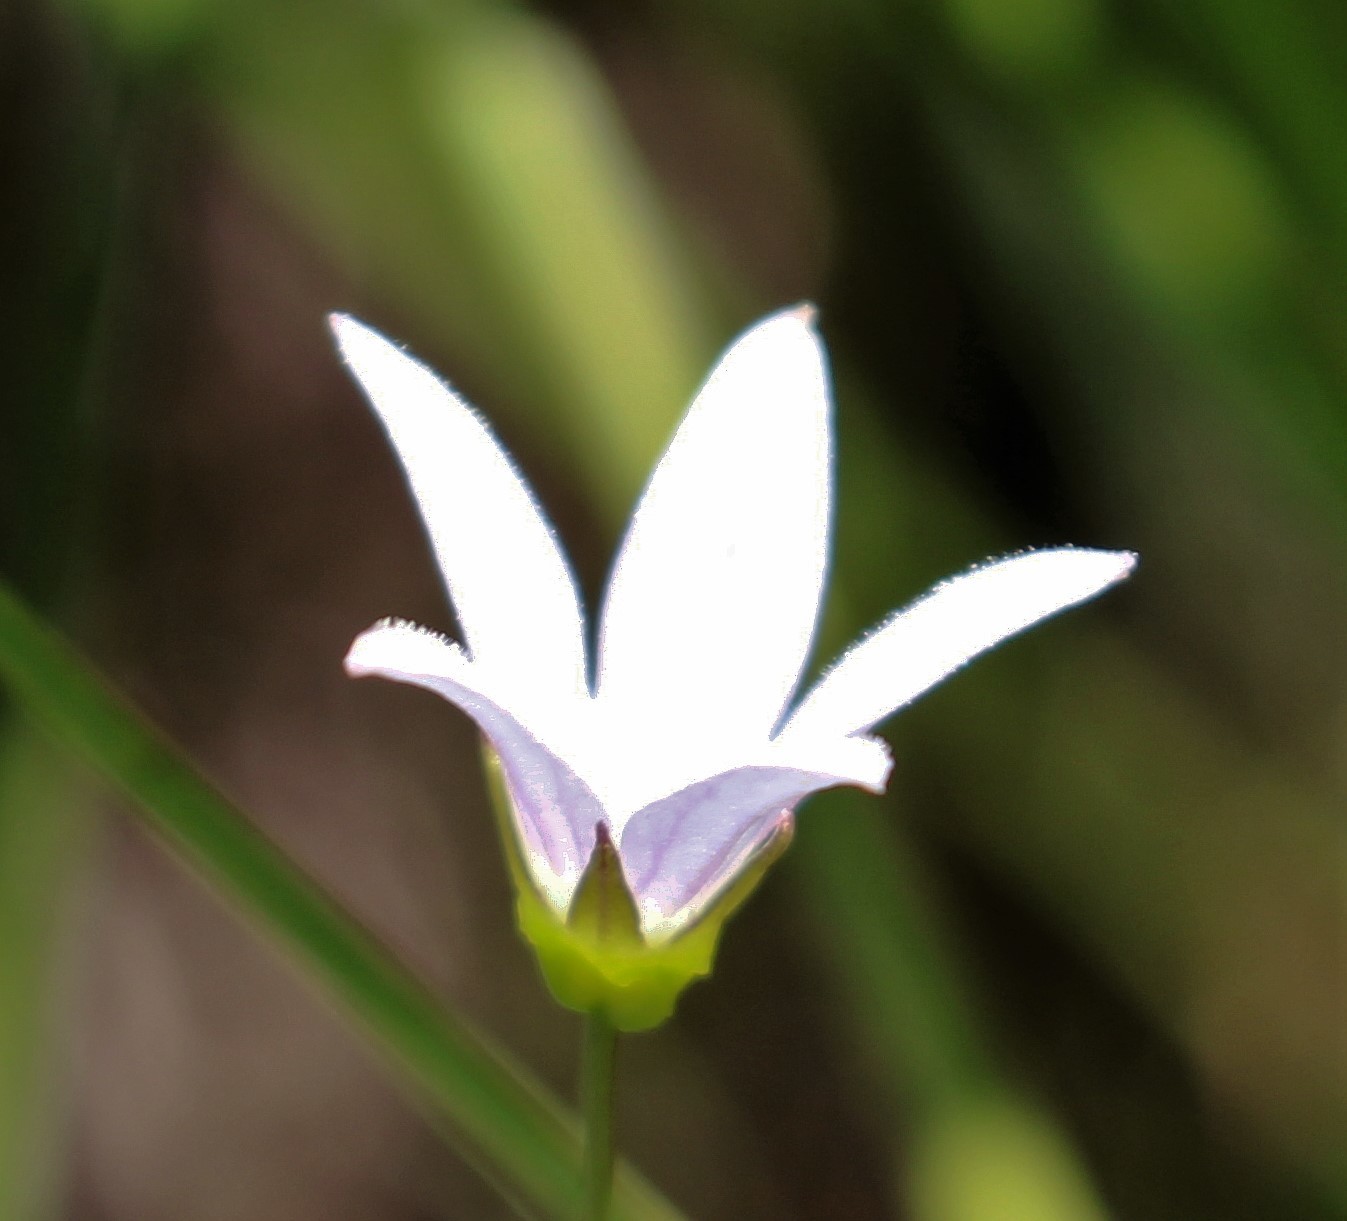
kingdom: Plantae
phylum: Tracheophyta
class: Magnoliopsida
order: Asterales
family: Campanulaceae
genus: Palustricodon
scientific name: Palustricodon aparinoides
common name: Bedstraw bellflower
